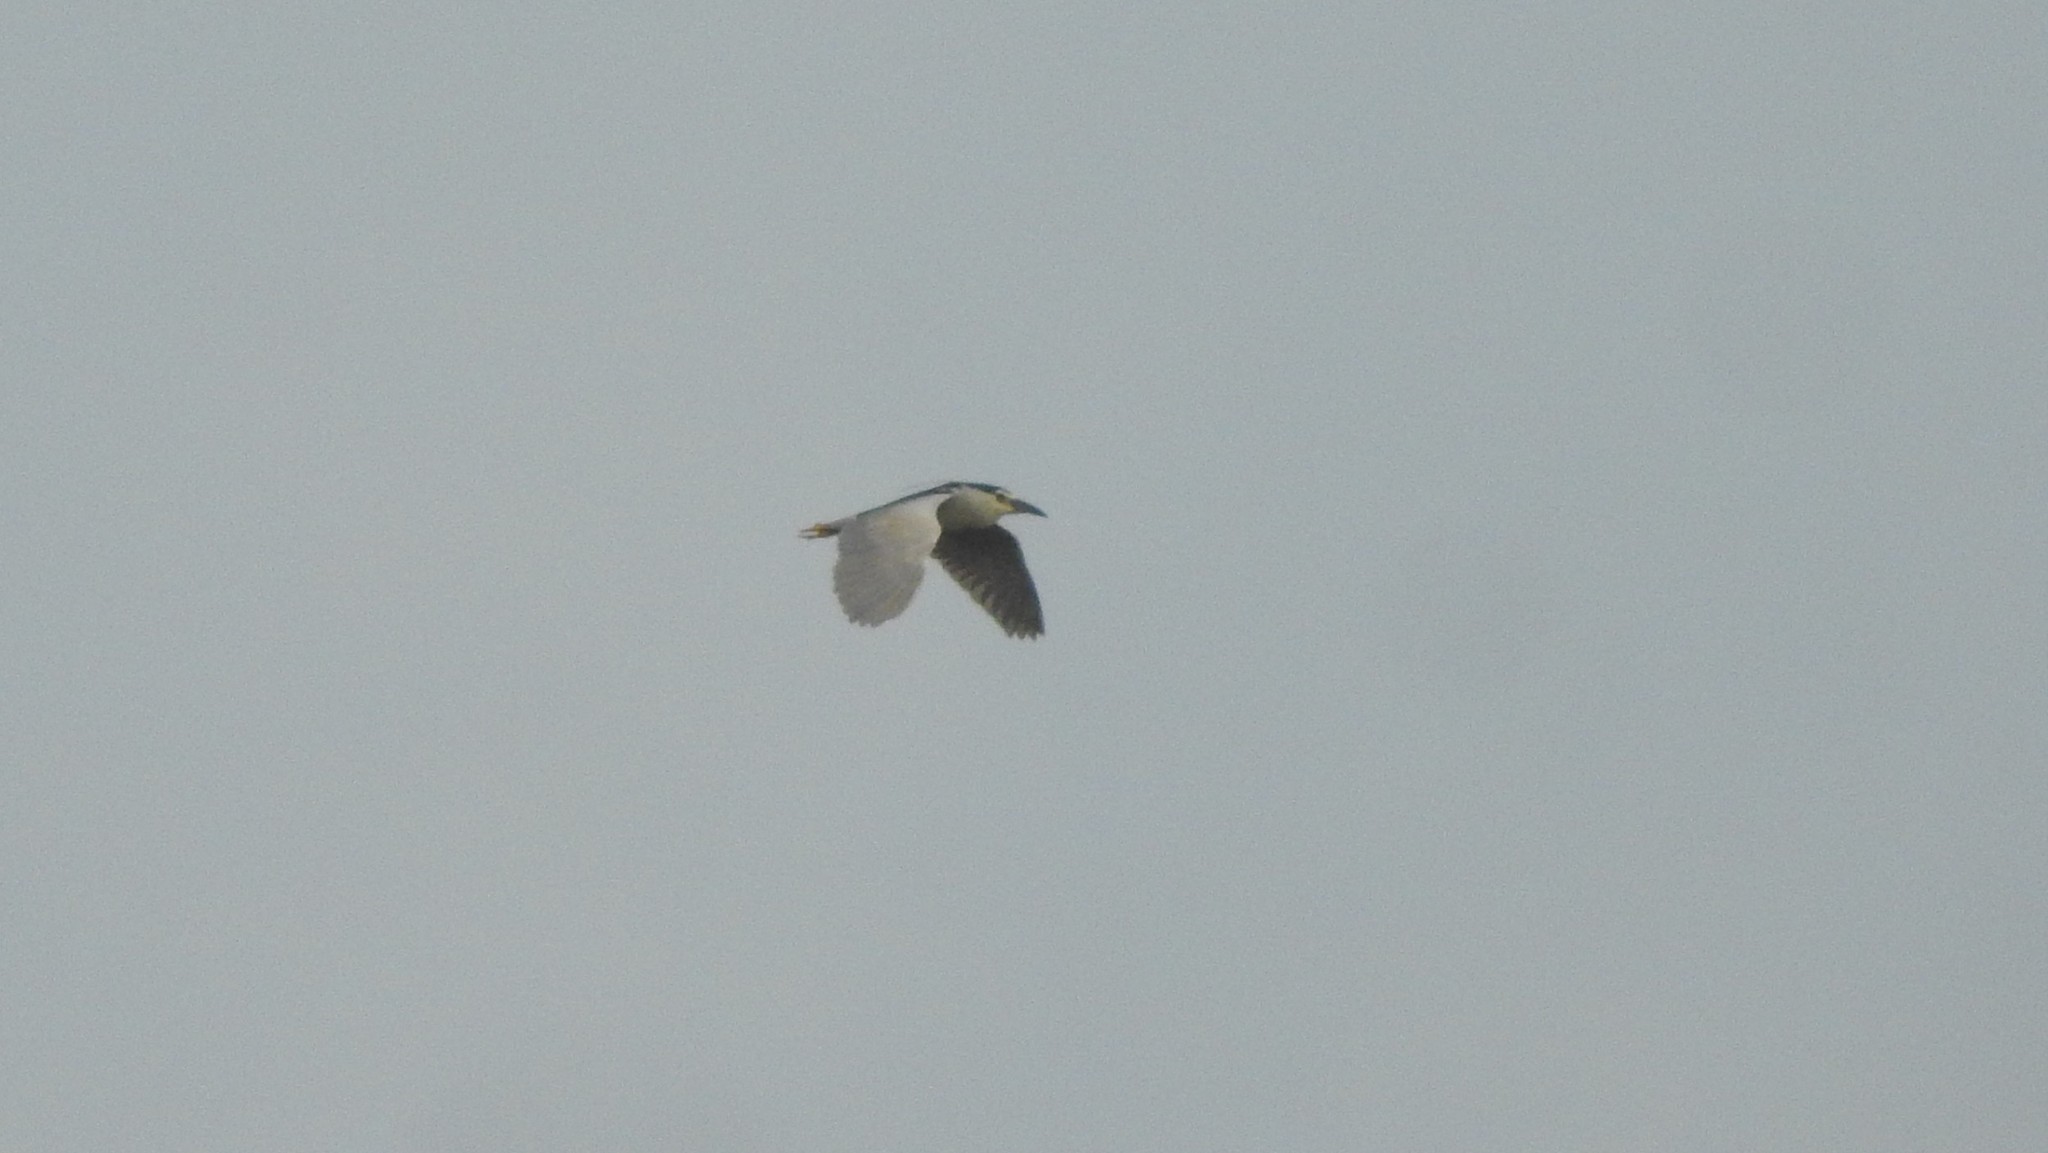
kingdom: Animalia
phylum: Chordata
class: Aves
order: Pelecaniformes
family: Ardeidae
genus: Nycticorax
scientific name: Nycticorax nycticorax
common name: Black-crowned night heron
